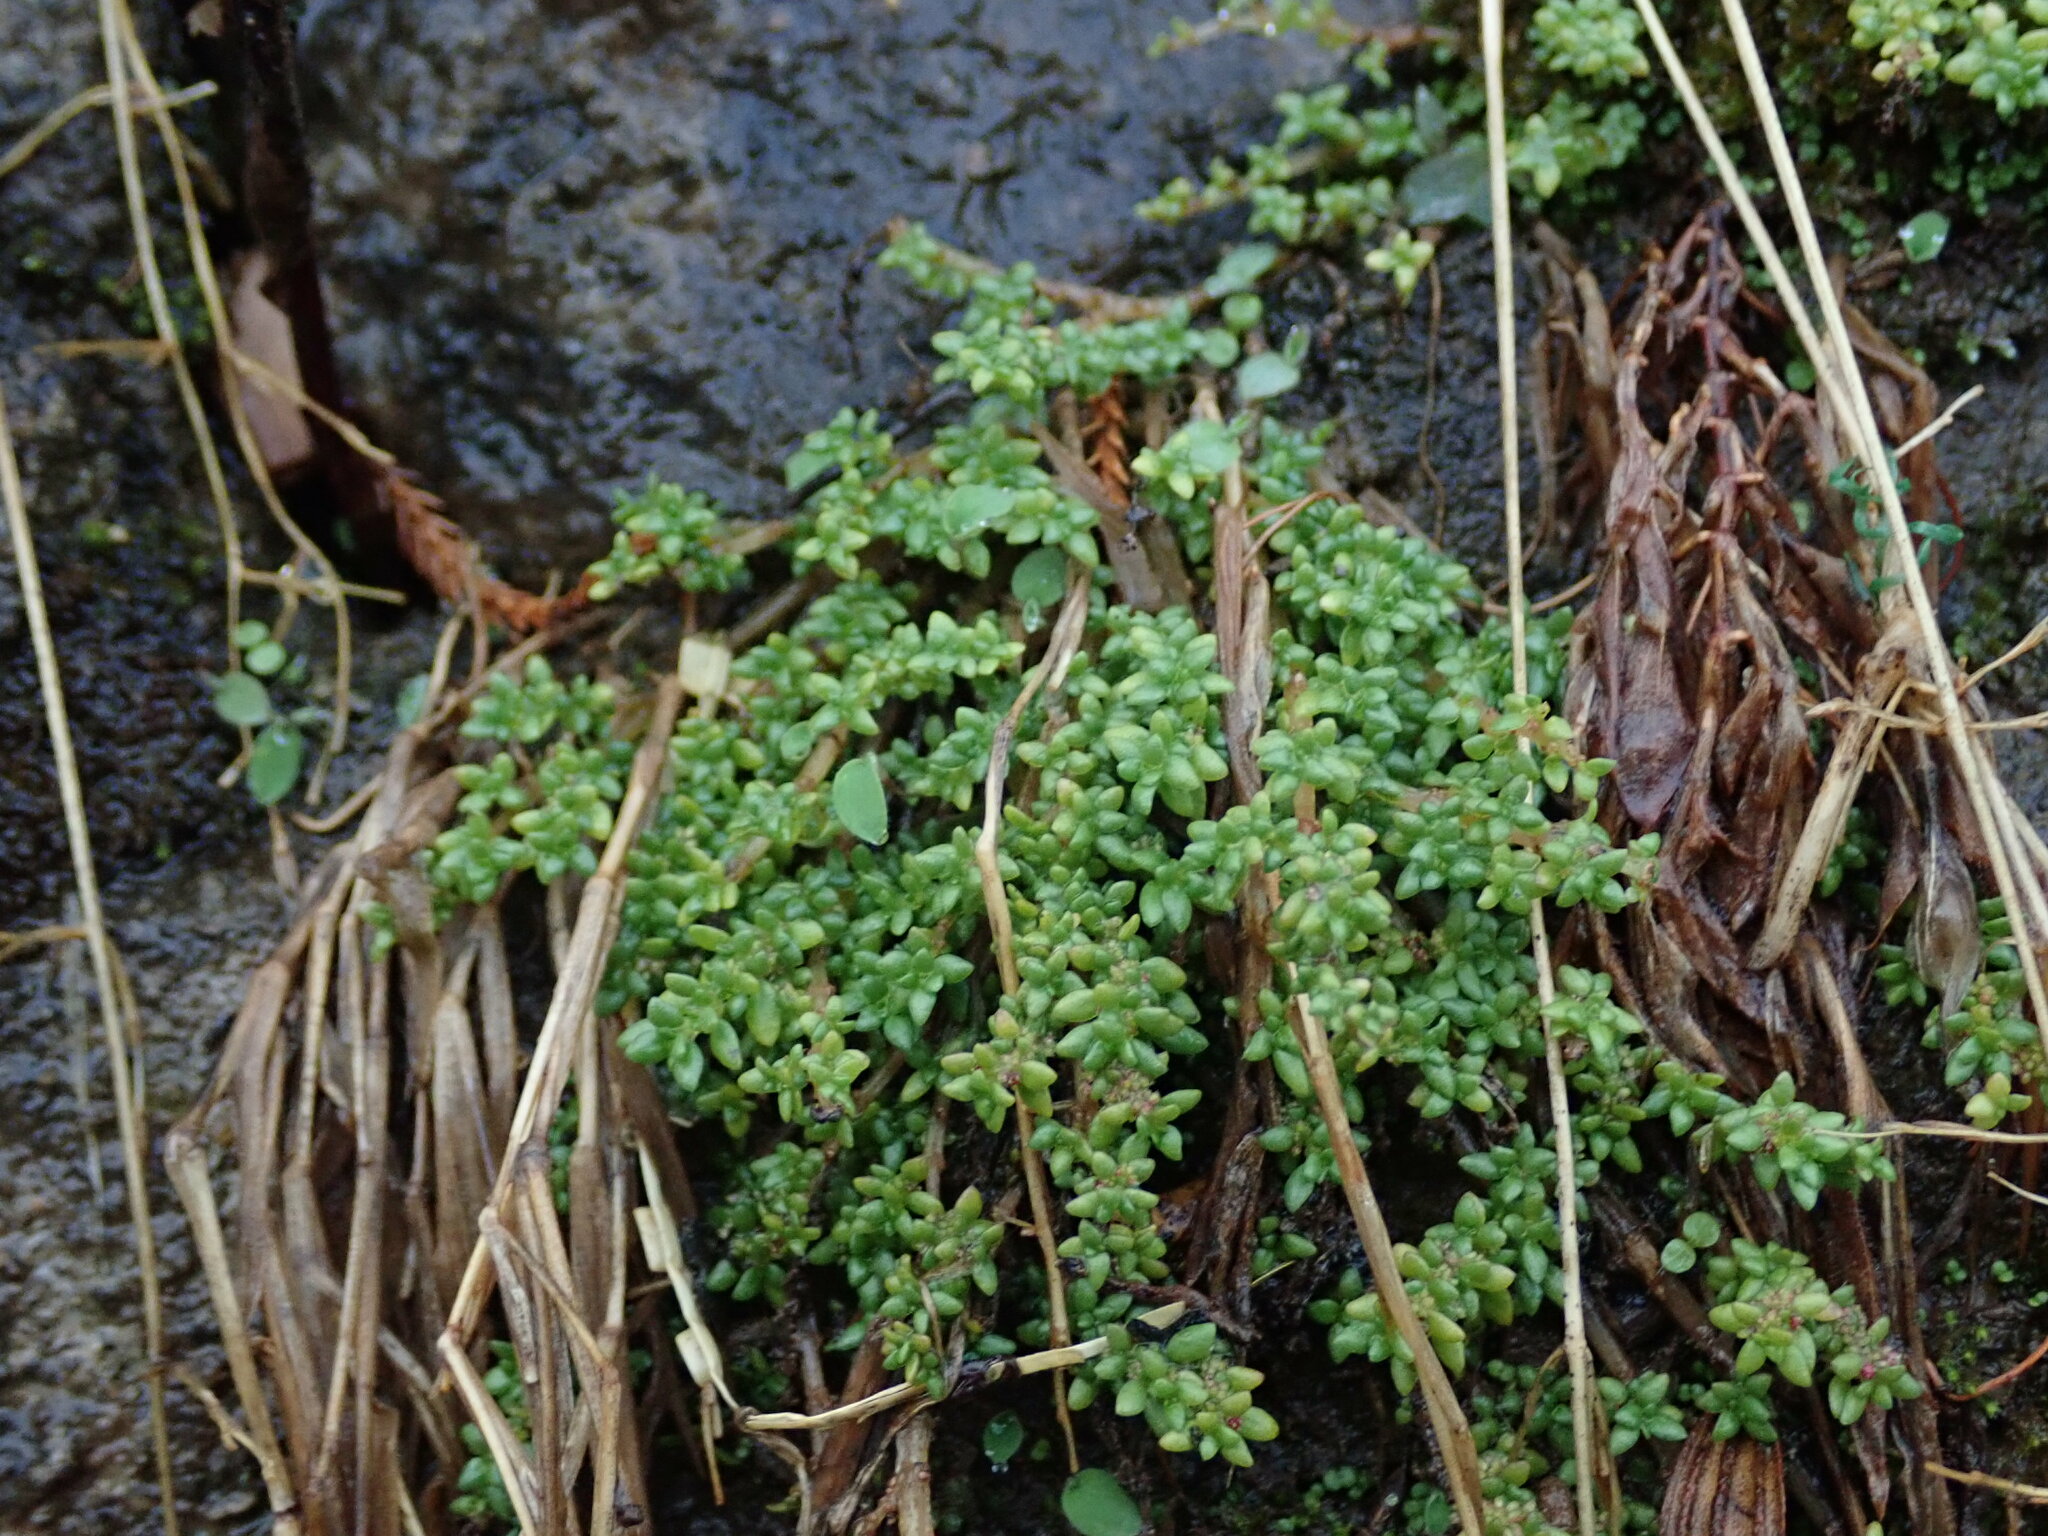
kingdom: Plantae
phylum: Tracheophyta
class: Magnoliopsida
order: Rosales
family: Urticaceae
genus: Pilea
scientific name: Pilea microphylla
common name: Artillery-plant
